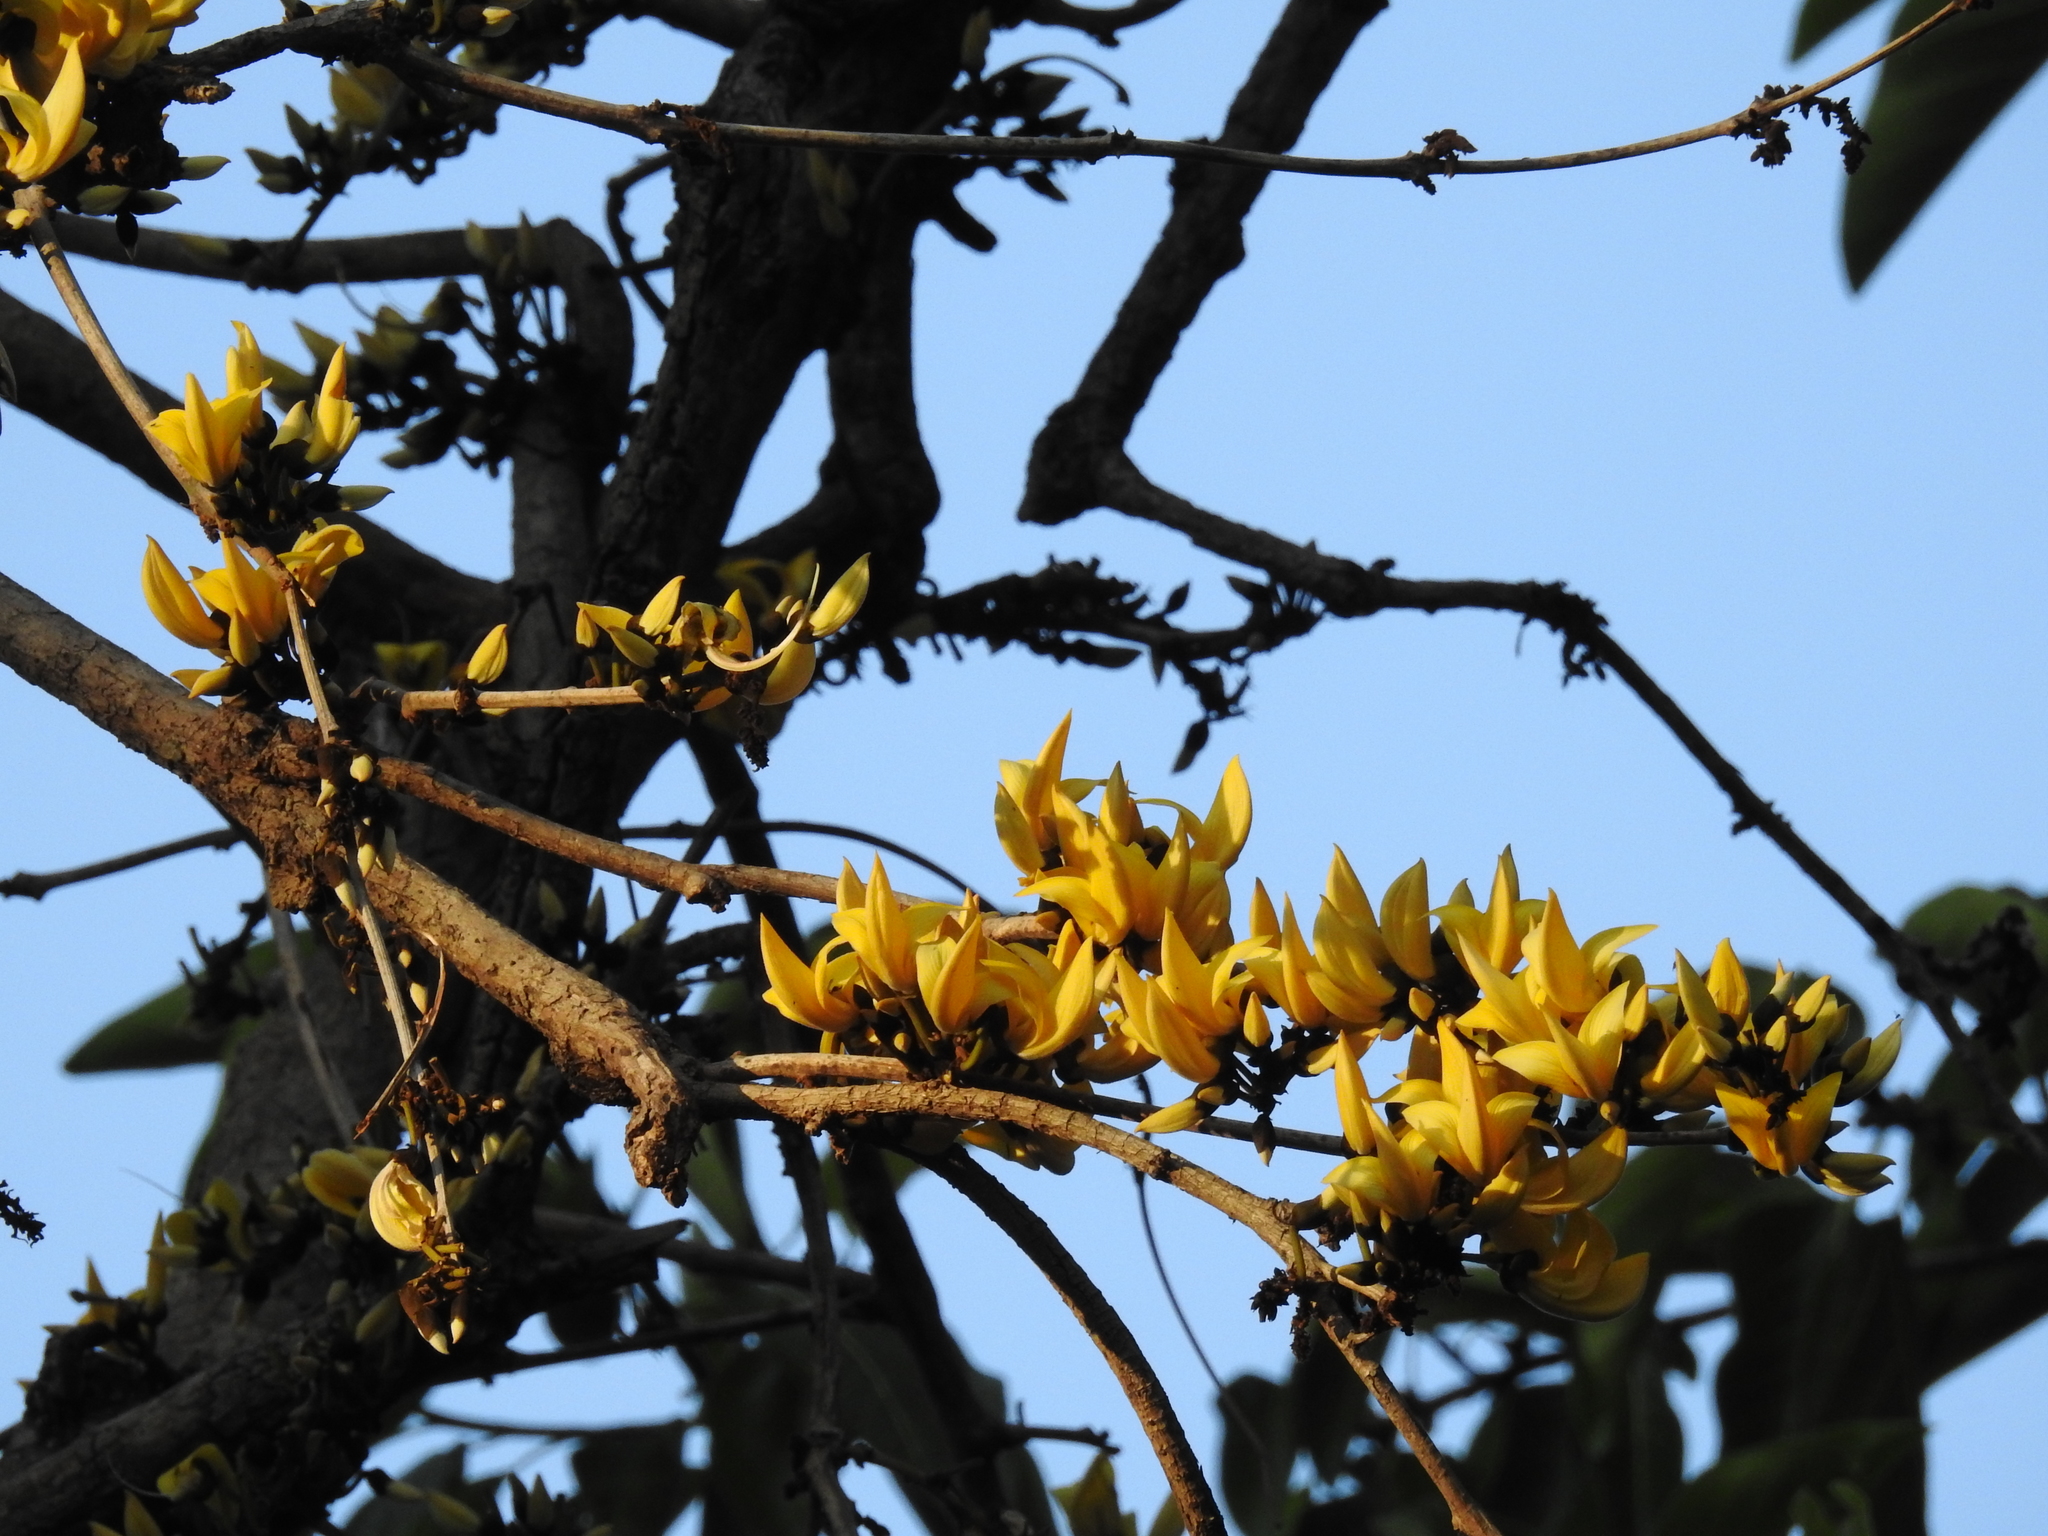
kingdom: Plantae
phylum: Tracheophyta
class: Magnoliopsida
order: Fabales
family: Fabaceae
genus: Butea
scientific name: Butea monosperma
